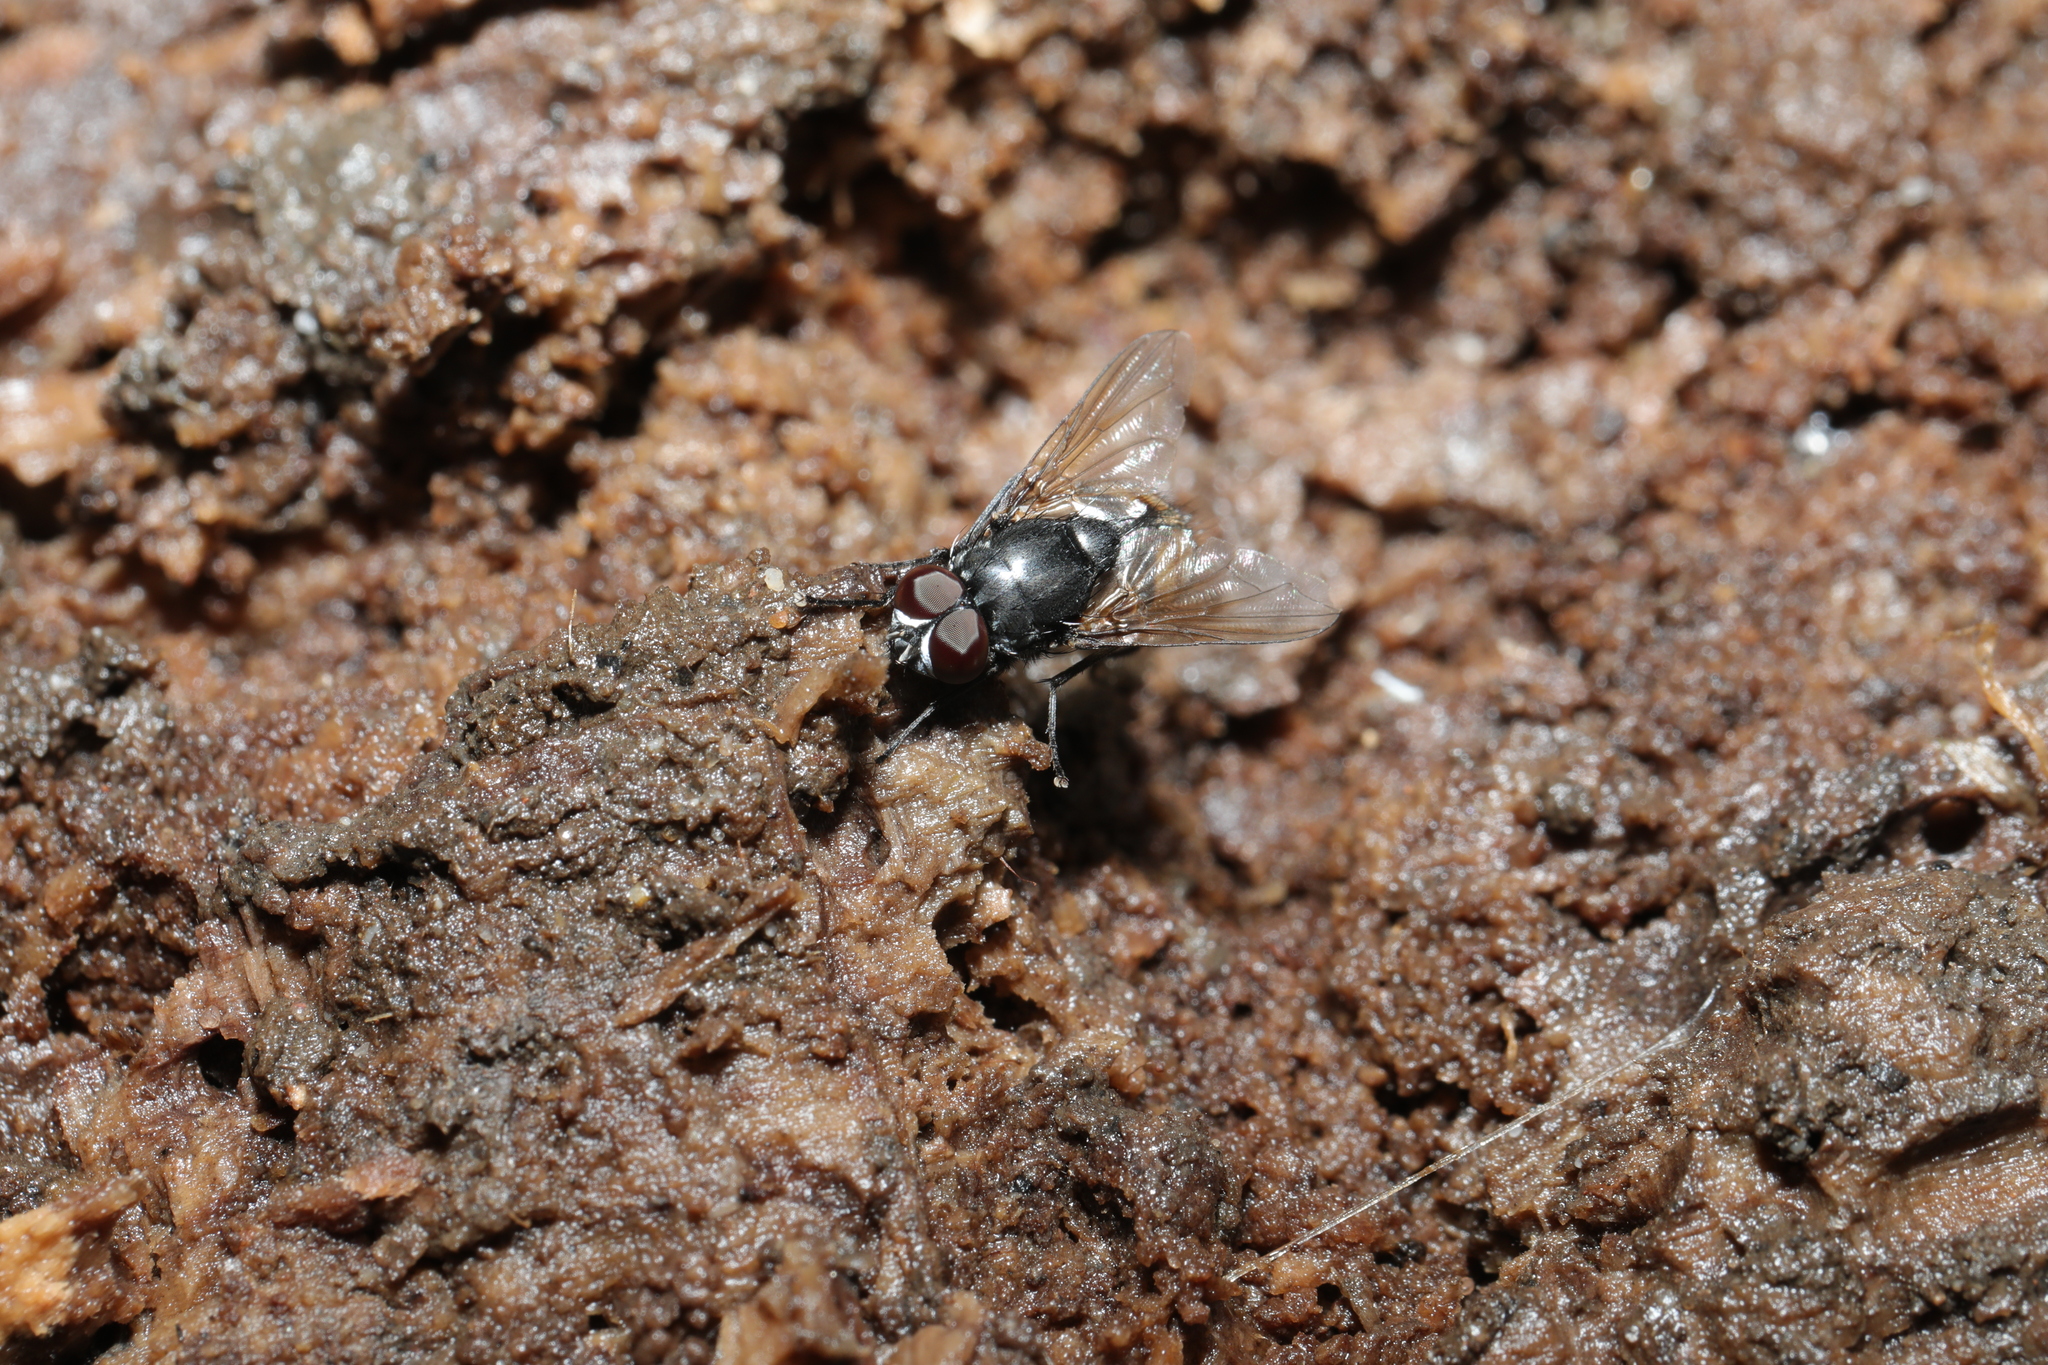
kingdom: Animalia
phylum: Arthropoda
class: Insecta
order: Diptera
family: Muscidae
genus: Musca
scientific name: Musca autumnalis
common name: Face fly
